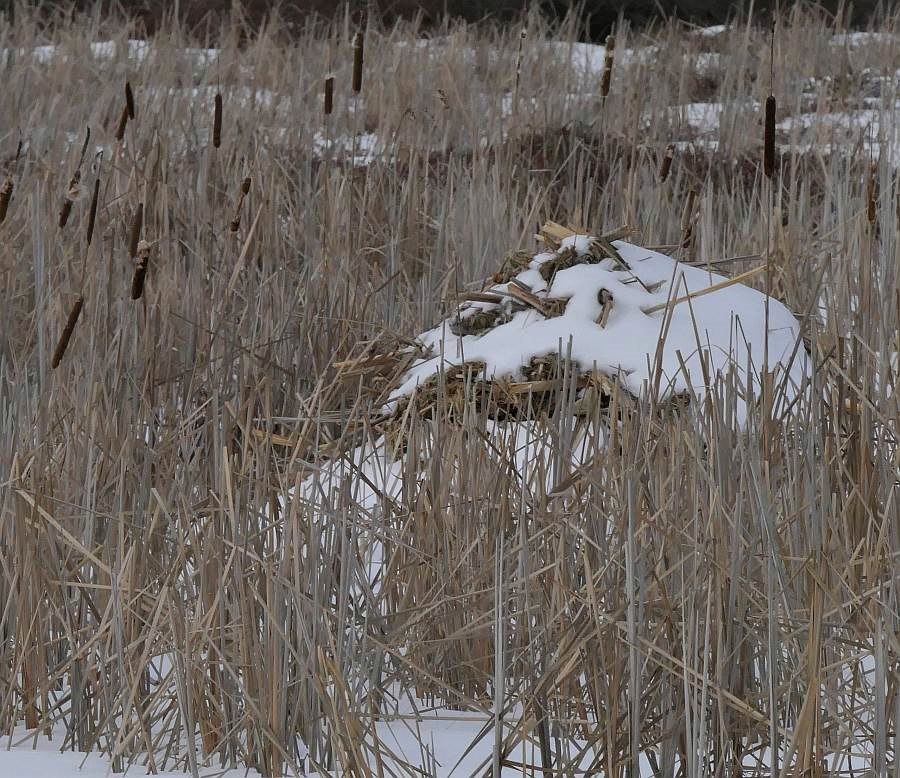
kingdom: Animalia
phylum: Chordata
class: Mammalia
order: Rodentia
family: Cricetidae
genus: Ondatra
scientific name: Ondatra zibethicus
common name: Muskrat
